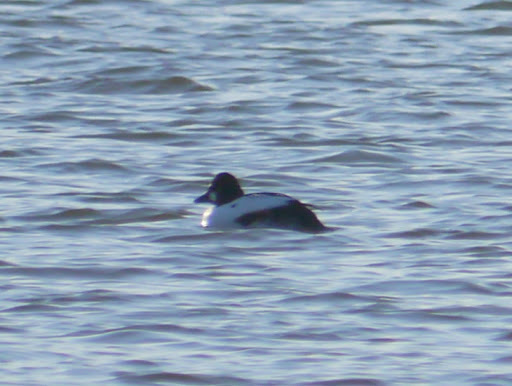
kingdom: Animalia
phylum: Chordata
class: Aves
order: Anseriformes
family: Anatidae
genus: Bucephala
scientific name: Bucephala clangula
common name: Common goldeneye
